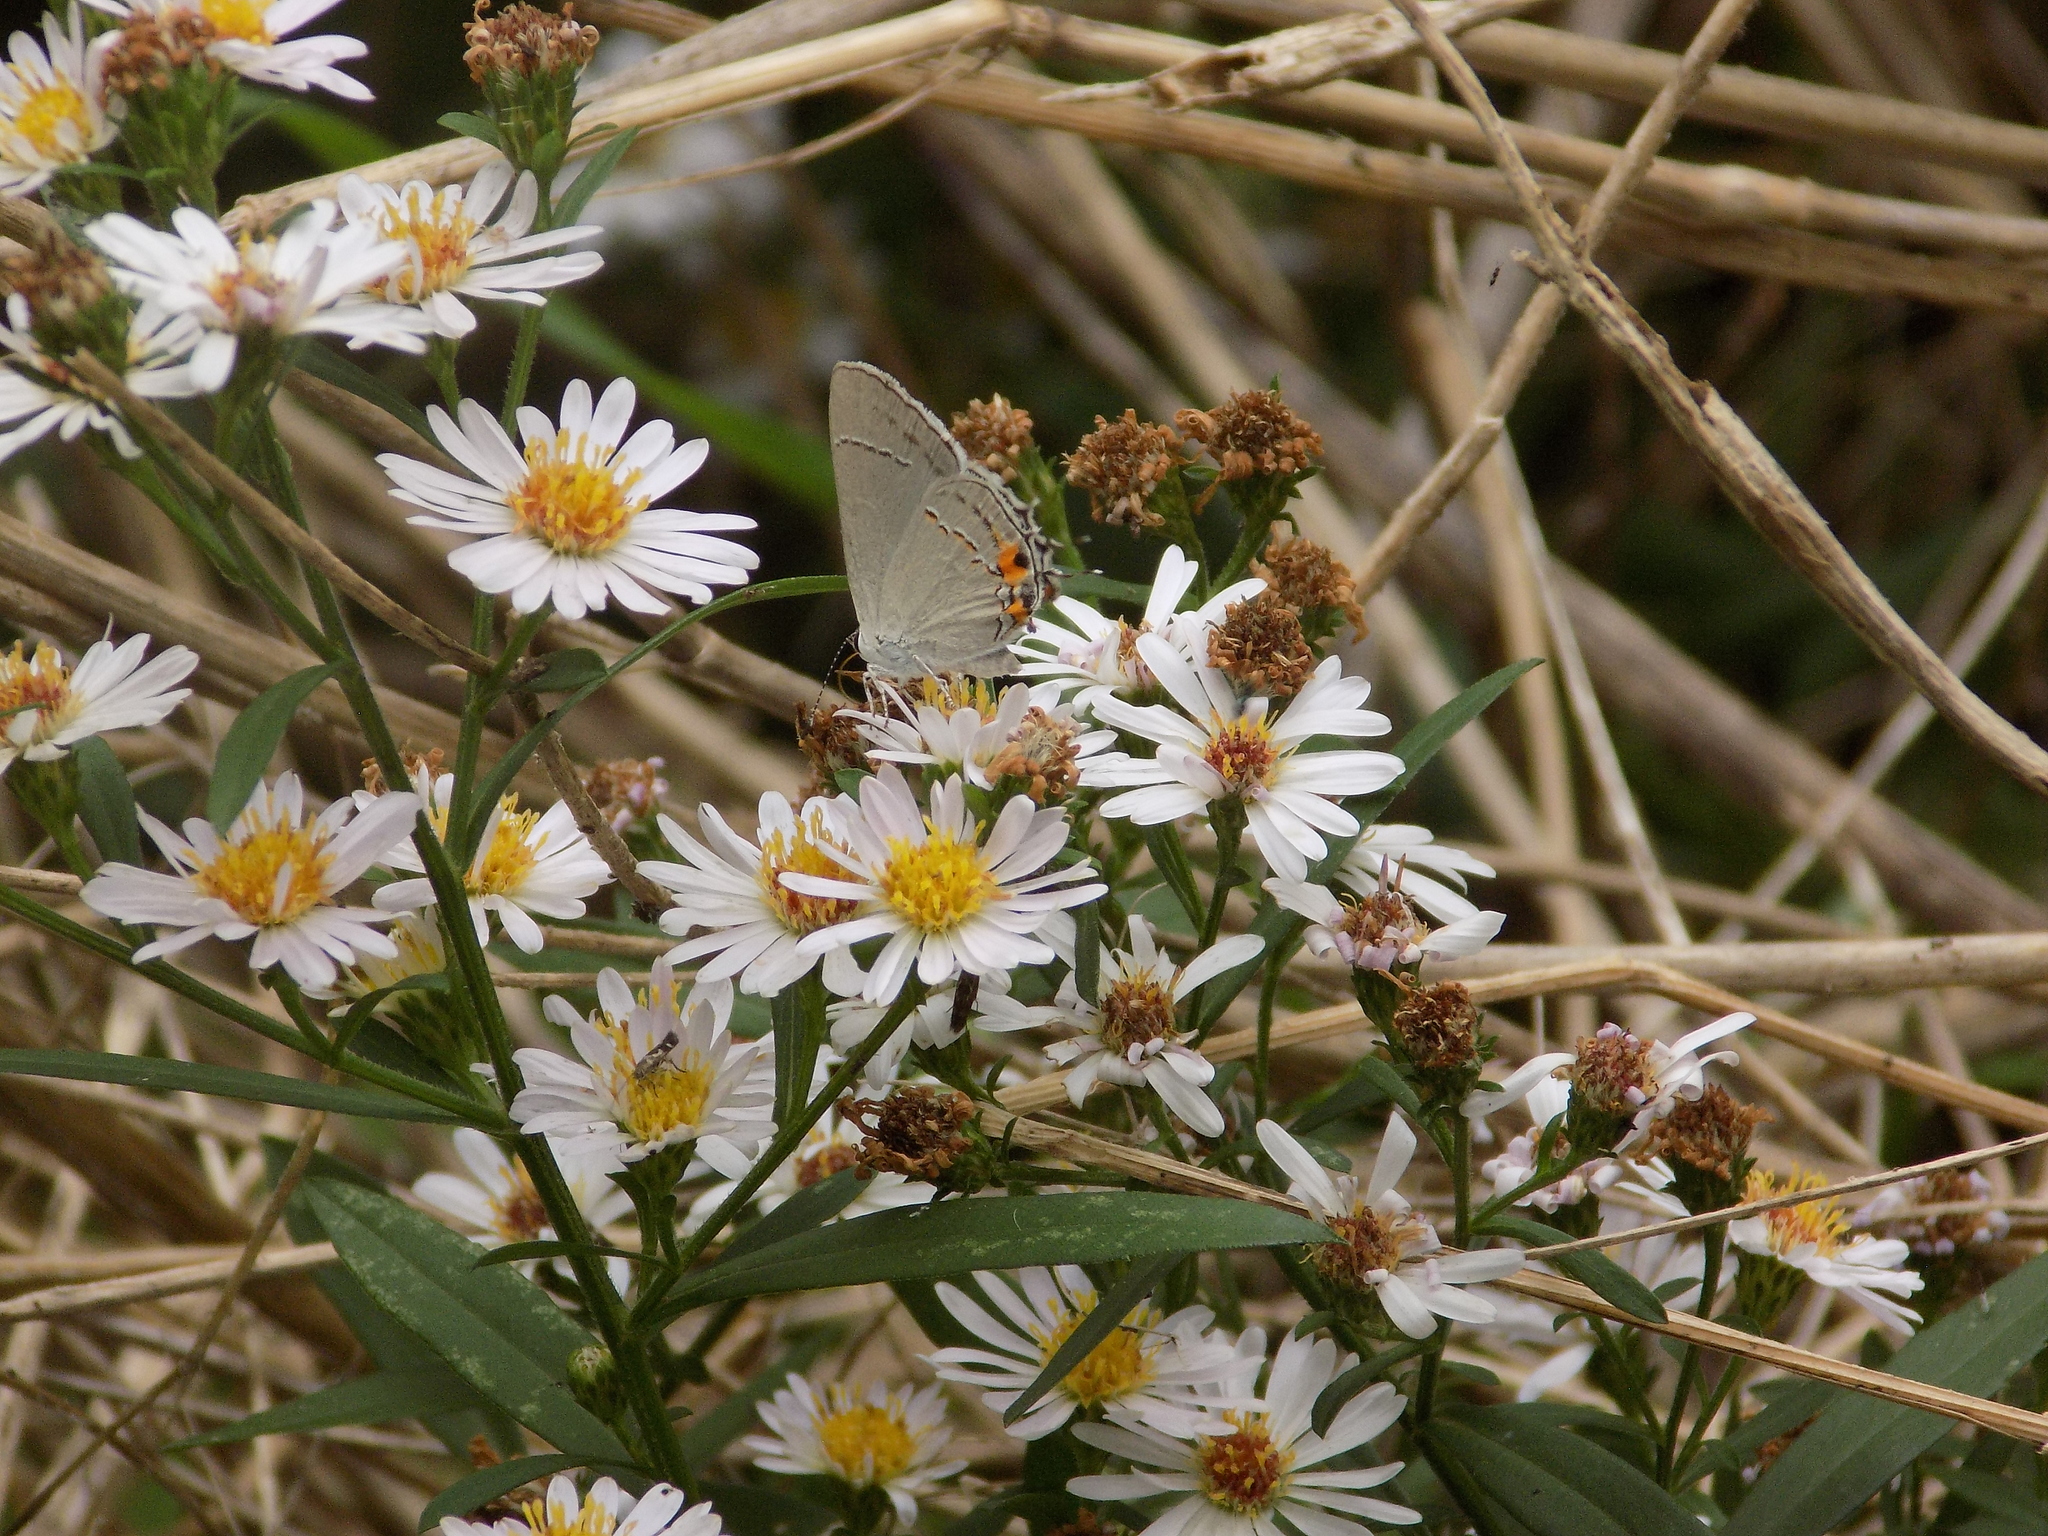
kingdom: Animalia
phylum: Arthropoda
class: Insecta
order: Lepidoptera
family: Lycaenidae
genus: Strymon
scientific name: Strymon melinus
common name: Gray hairstreak
